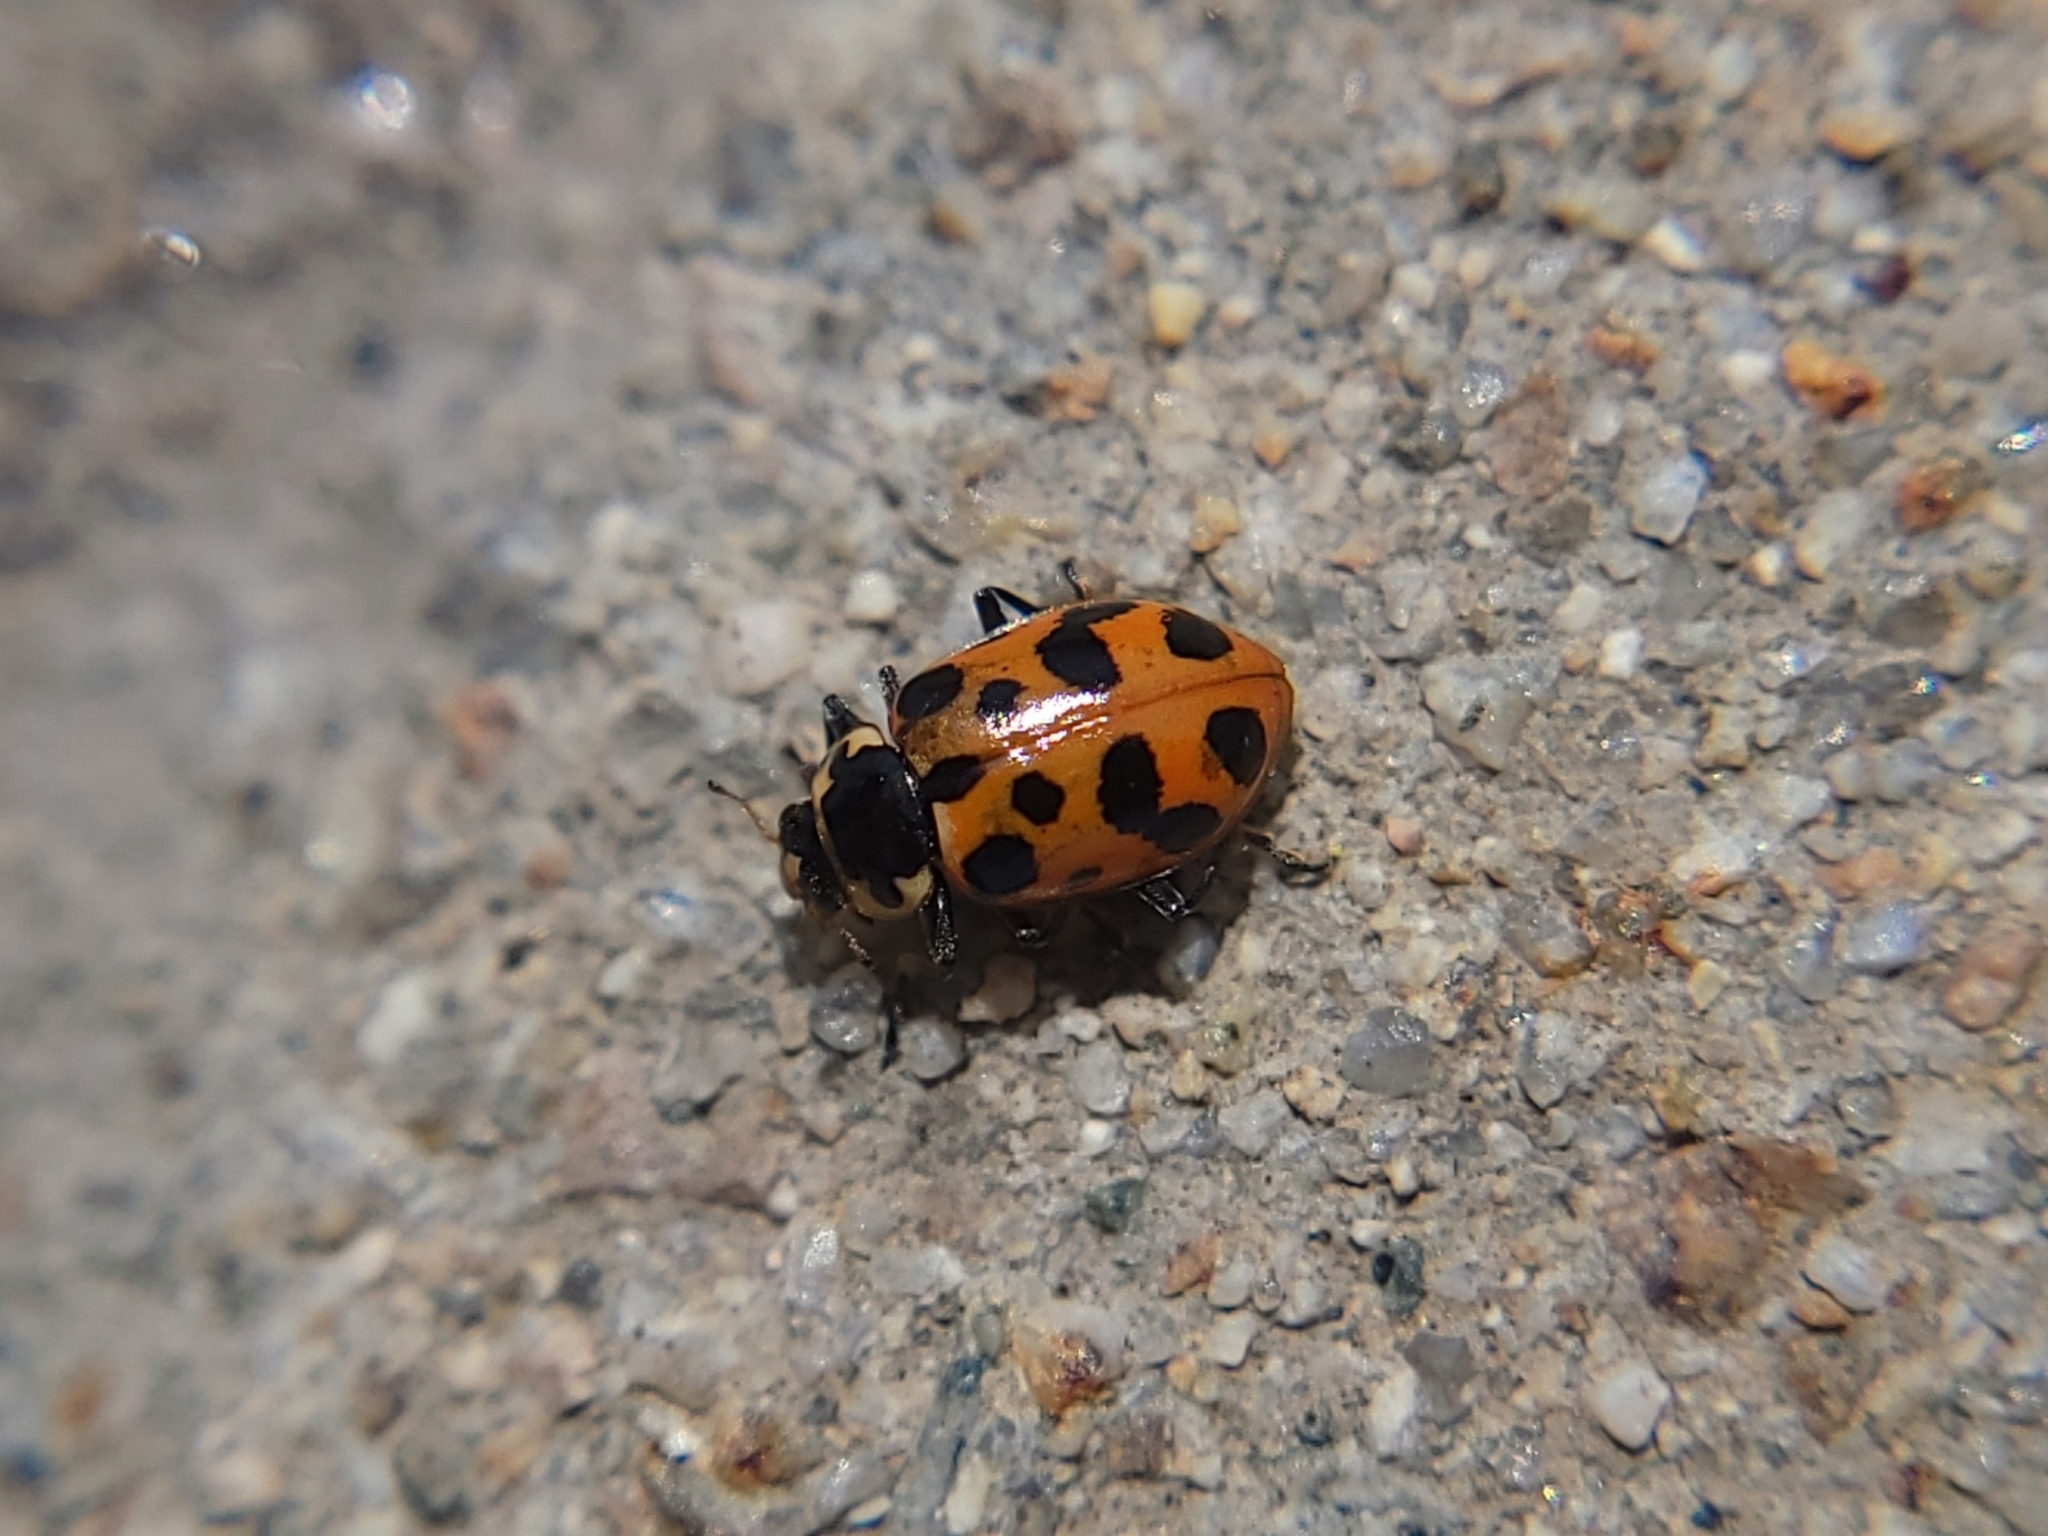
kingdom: Animalia
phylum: Arthropoda
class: Insecta
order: Coleoptera
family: Coccinellidae
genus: Hippodamia
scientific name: Hippodamia tredecimpunctata
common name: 13-spot ladybird
